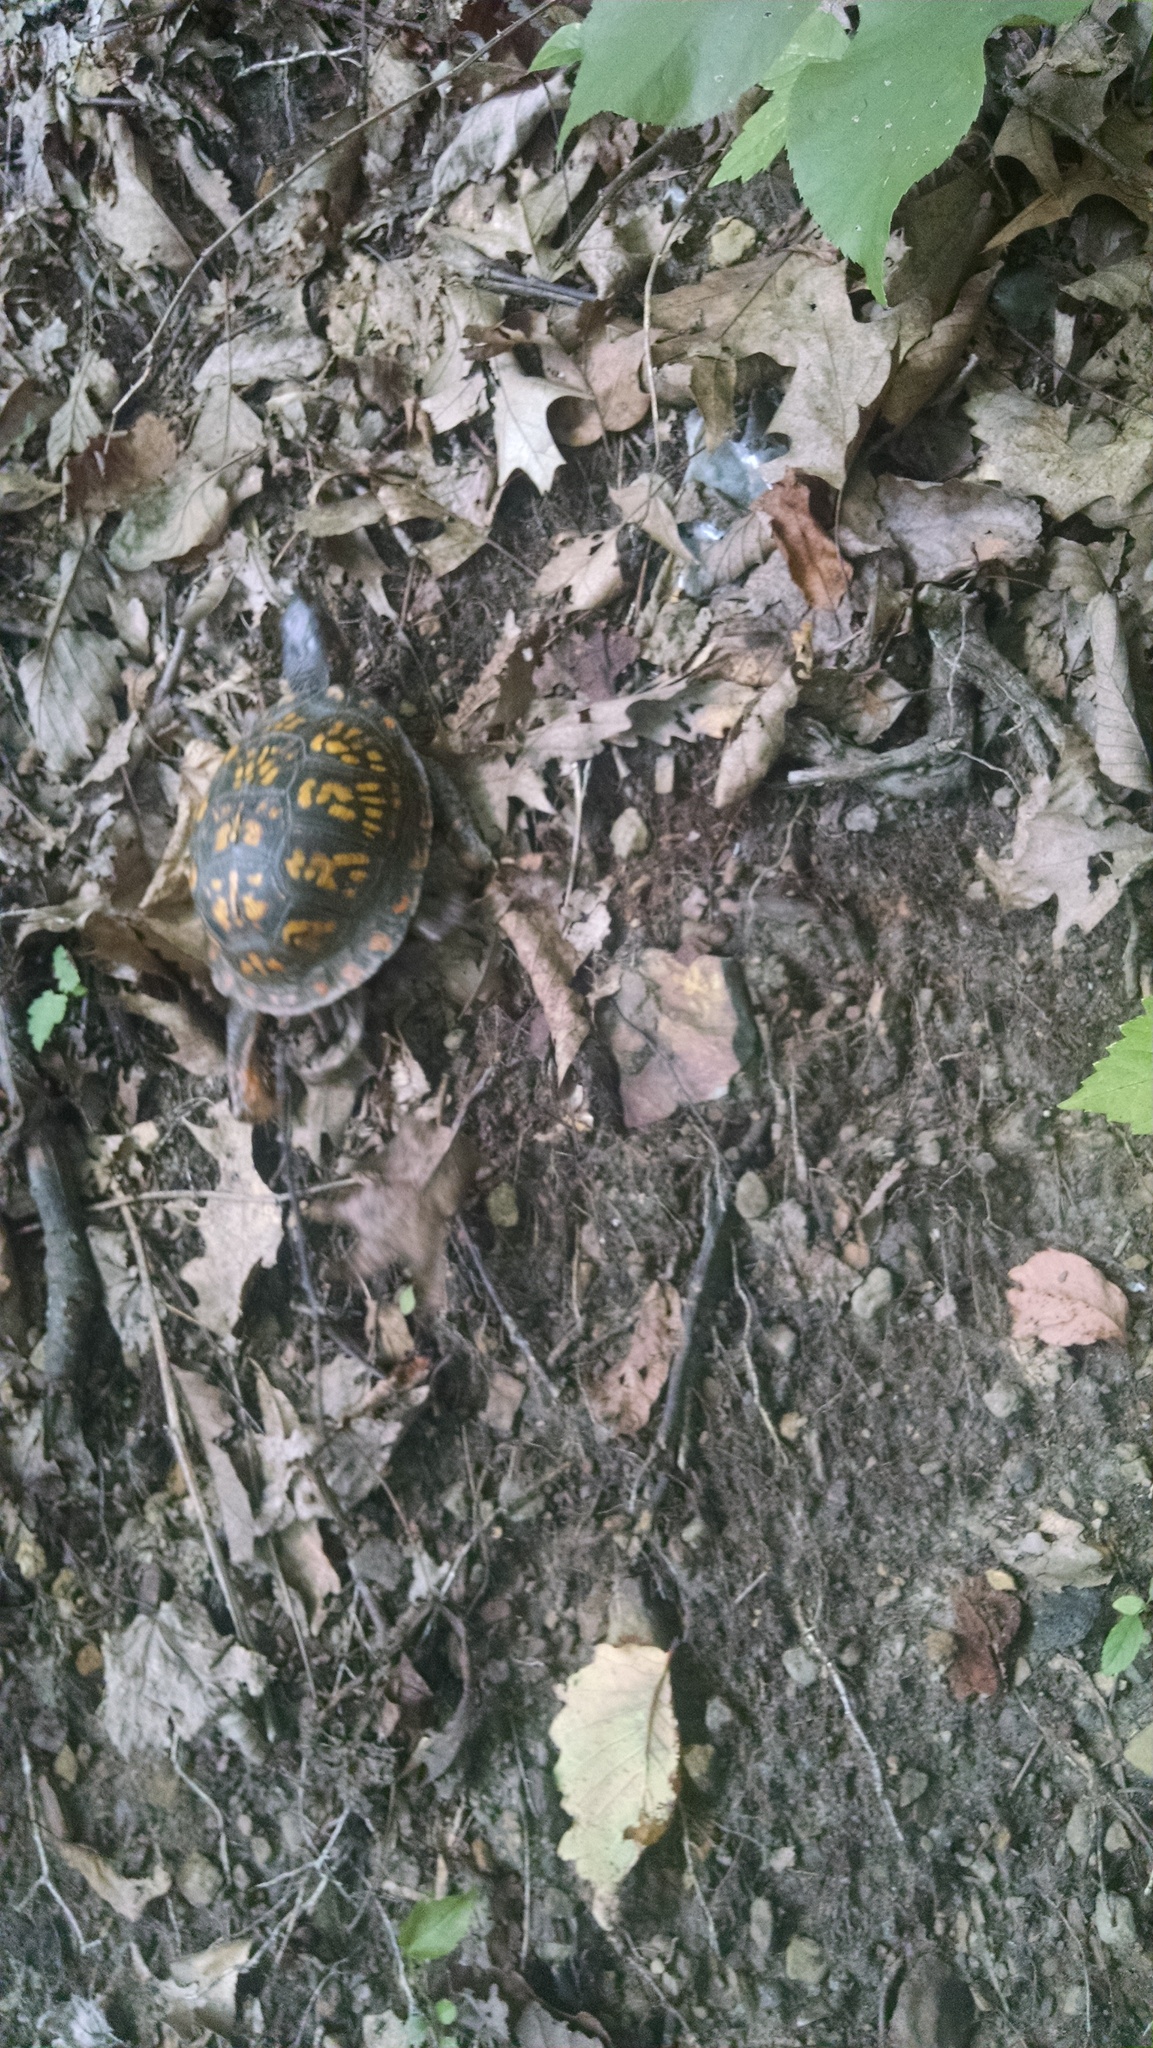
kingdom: Animalia
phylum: Chordata
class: Testudines
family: Emydidae
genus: Terrapene
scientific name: Terrapene carolina
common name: Common box turtle
